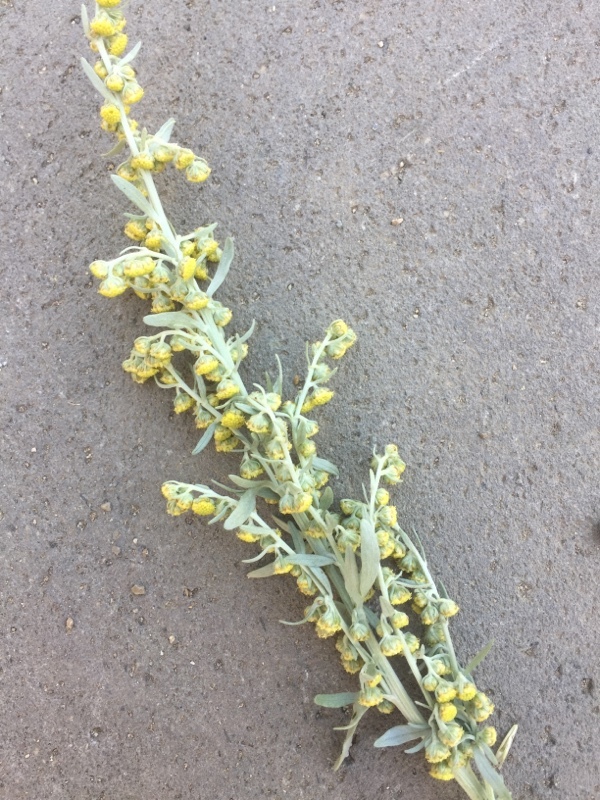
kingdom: Plantae
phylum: Tracheophyta
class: Magnoliopsida
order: Asterales
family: Asteraceae
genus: Artemisia
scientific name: Artemisia absinthium
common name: Wormwood
